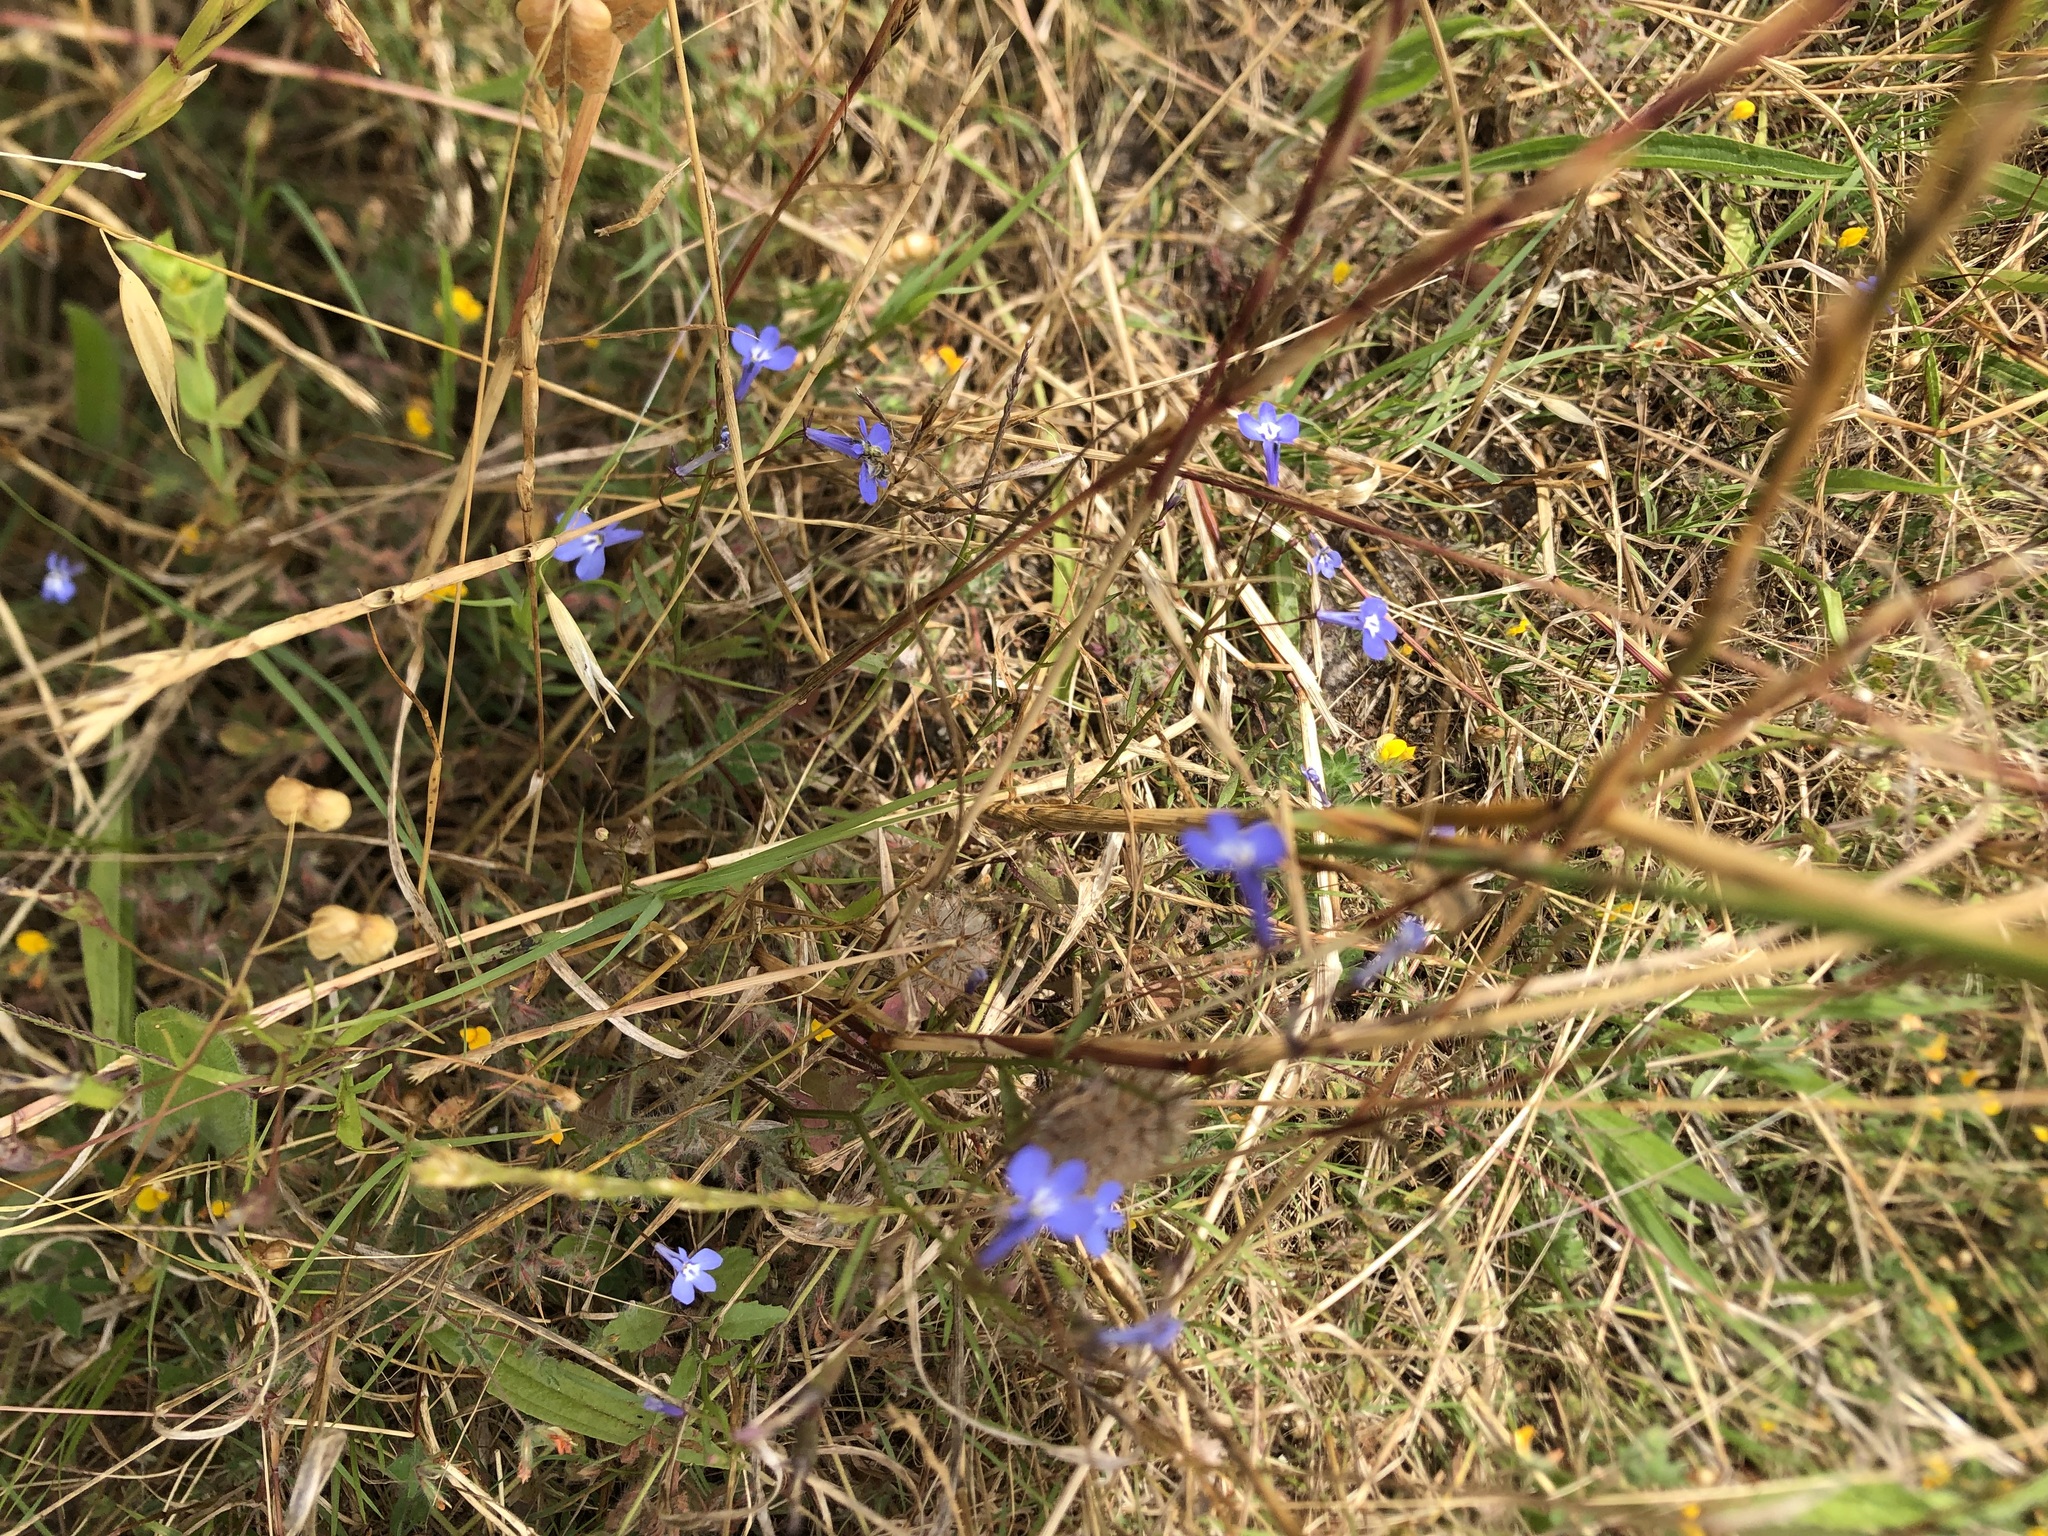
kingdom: Plantae
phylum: Tracheophyta
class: Magnoliopsida
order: Asterales
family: Campanulaceae
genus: Lobelia
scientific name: Lobelia erinus
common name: Edging lobelia
